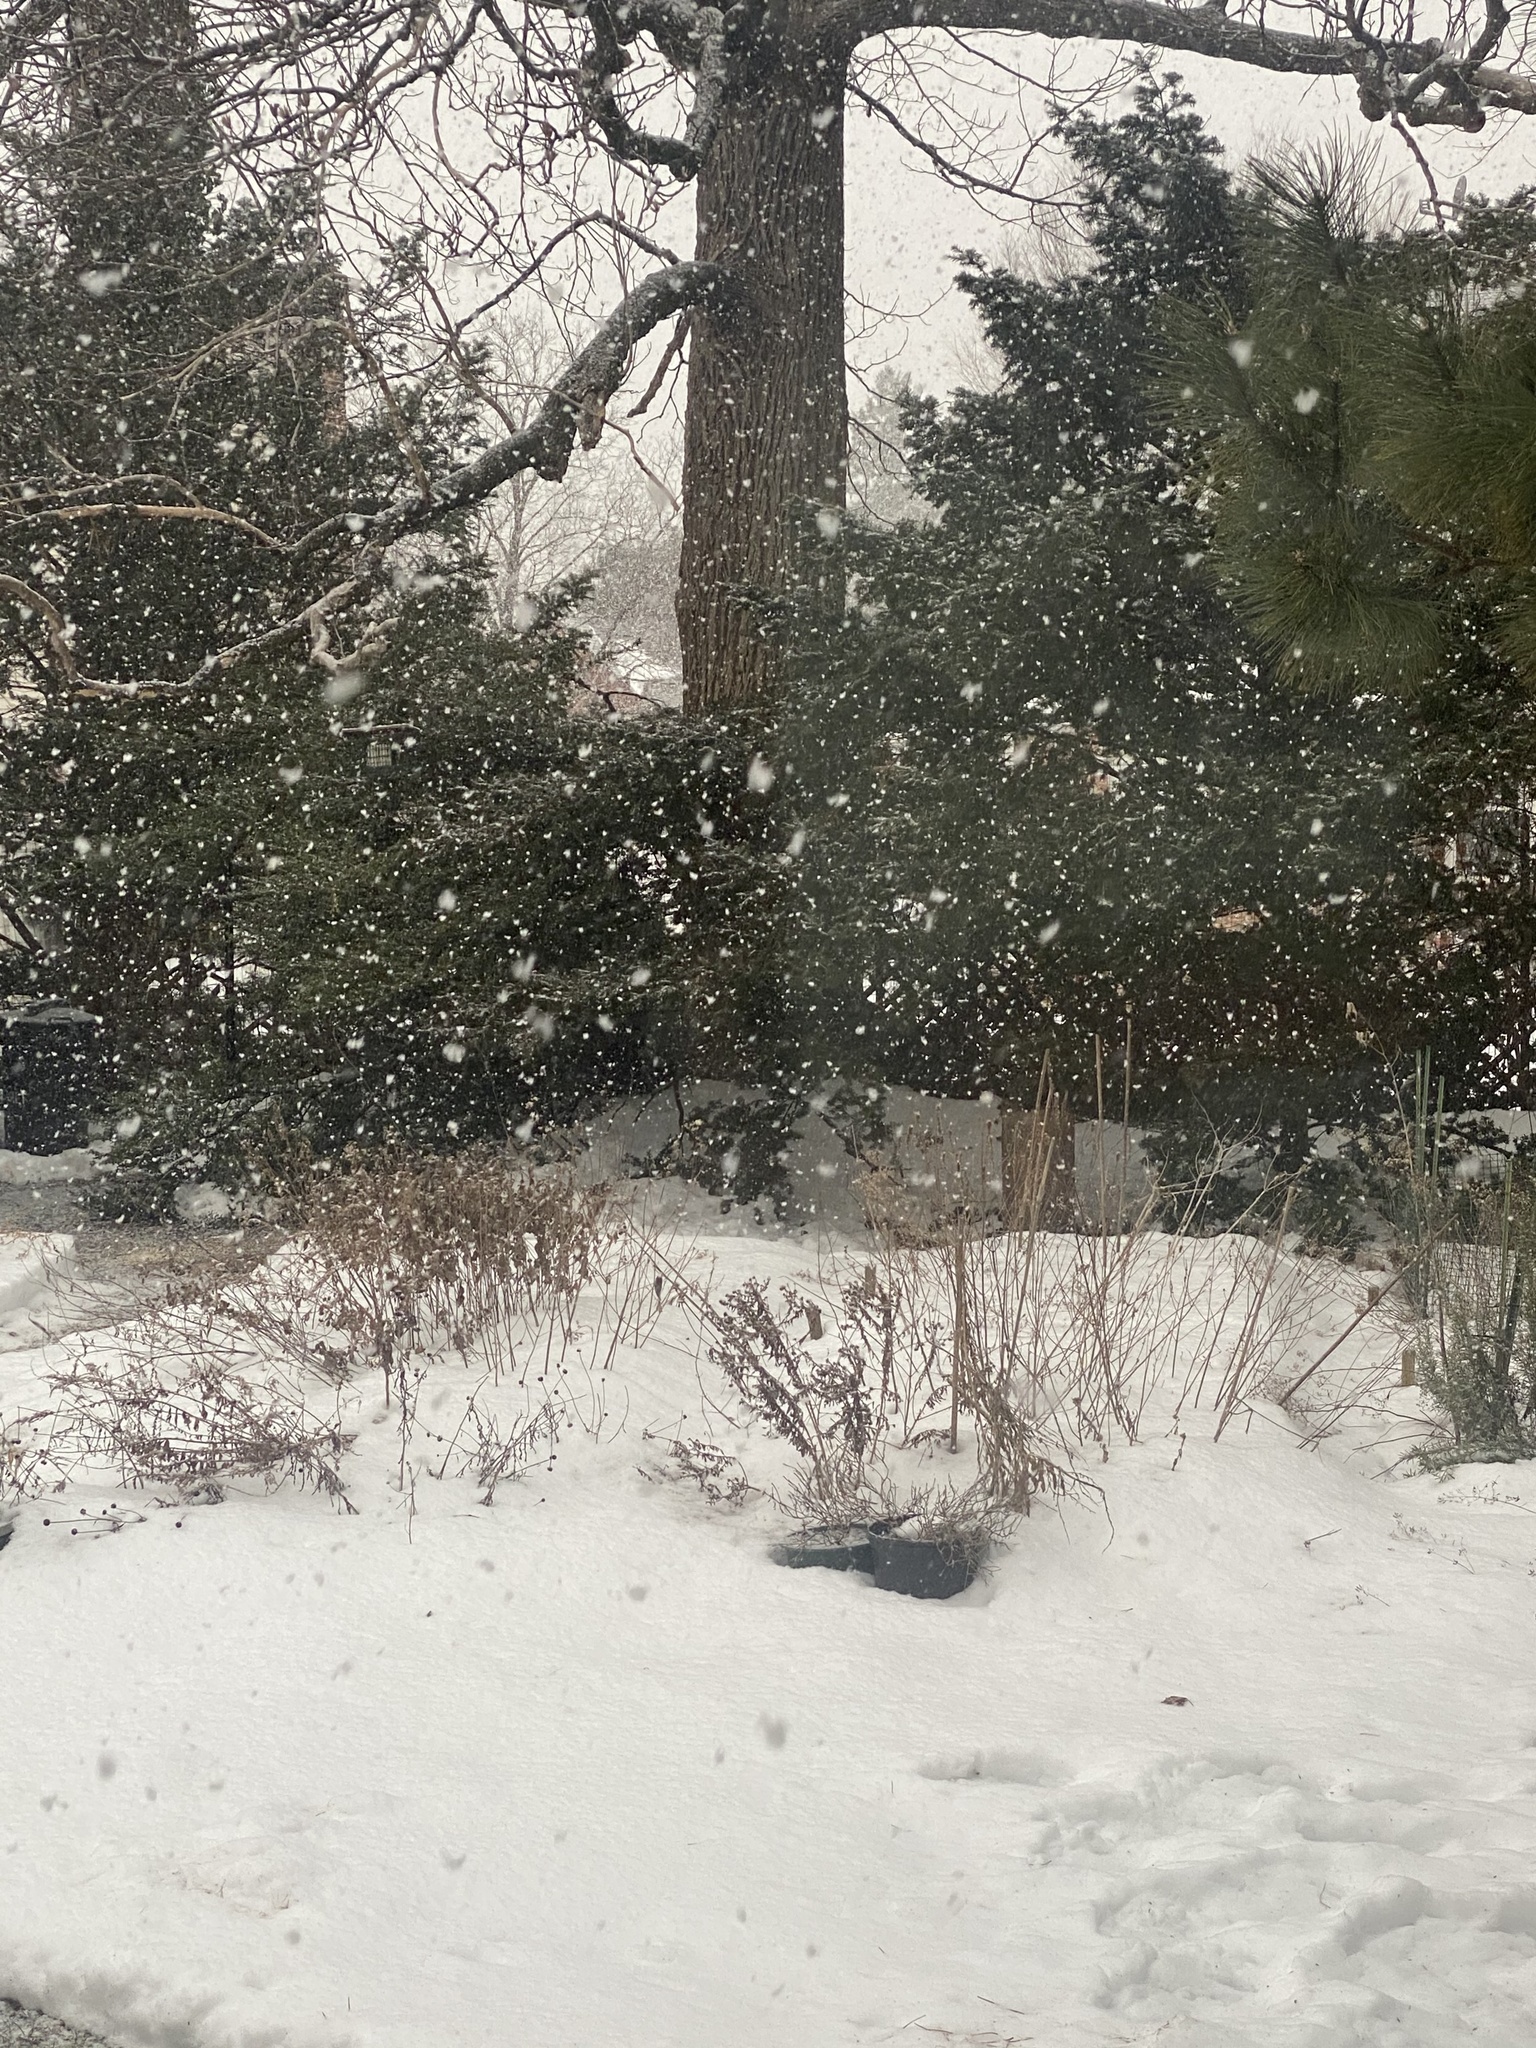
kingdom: Animalia
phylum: Chordata
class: Aves
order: Passeriformes
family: Passerellidae
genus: Junco
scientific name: Junco hyemalis
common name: Dark-eyed junco
